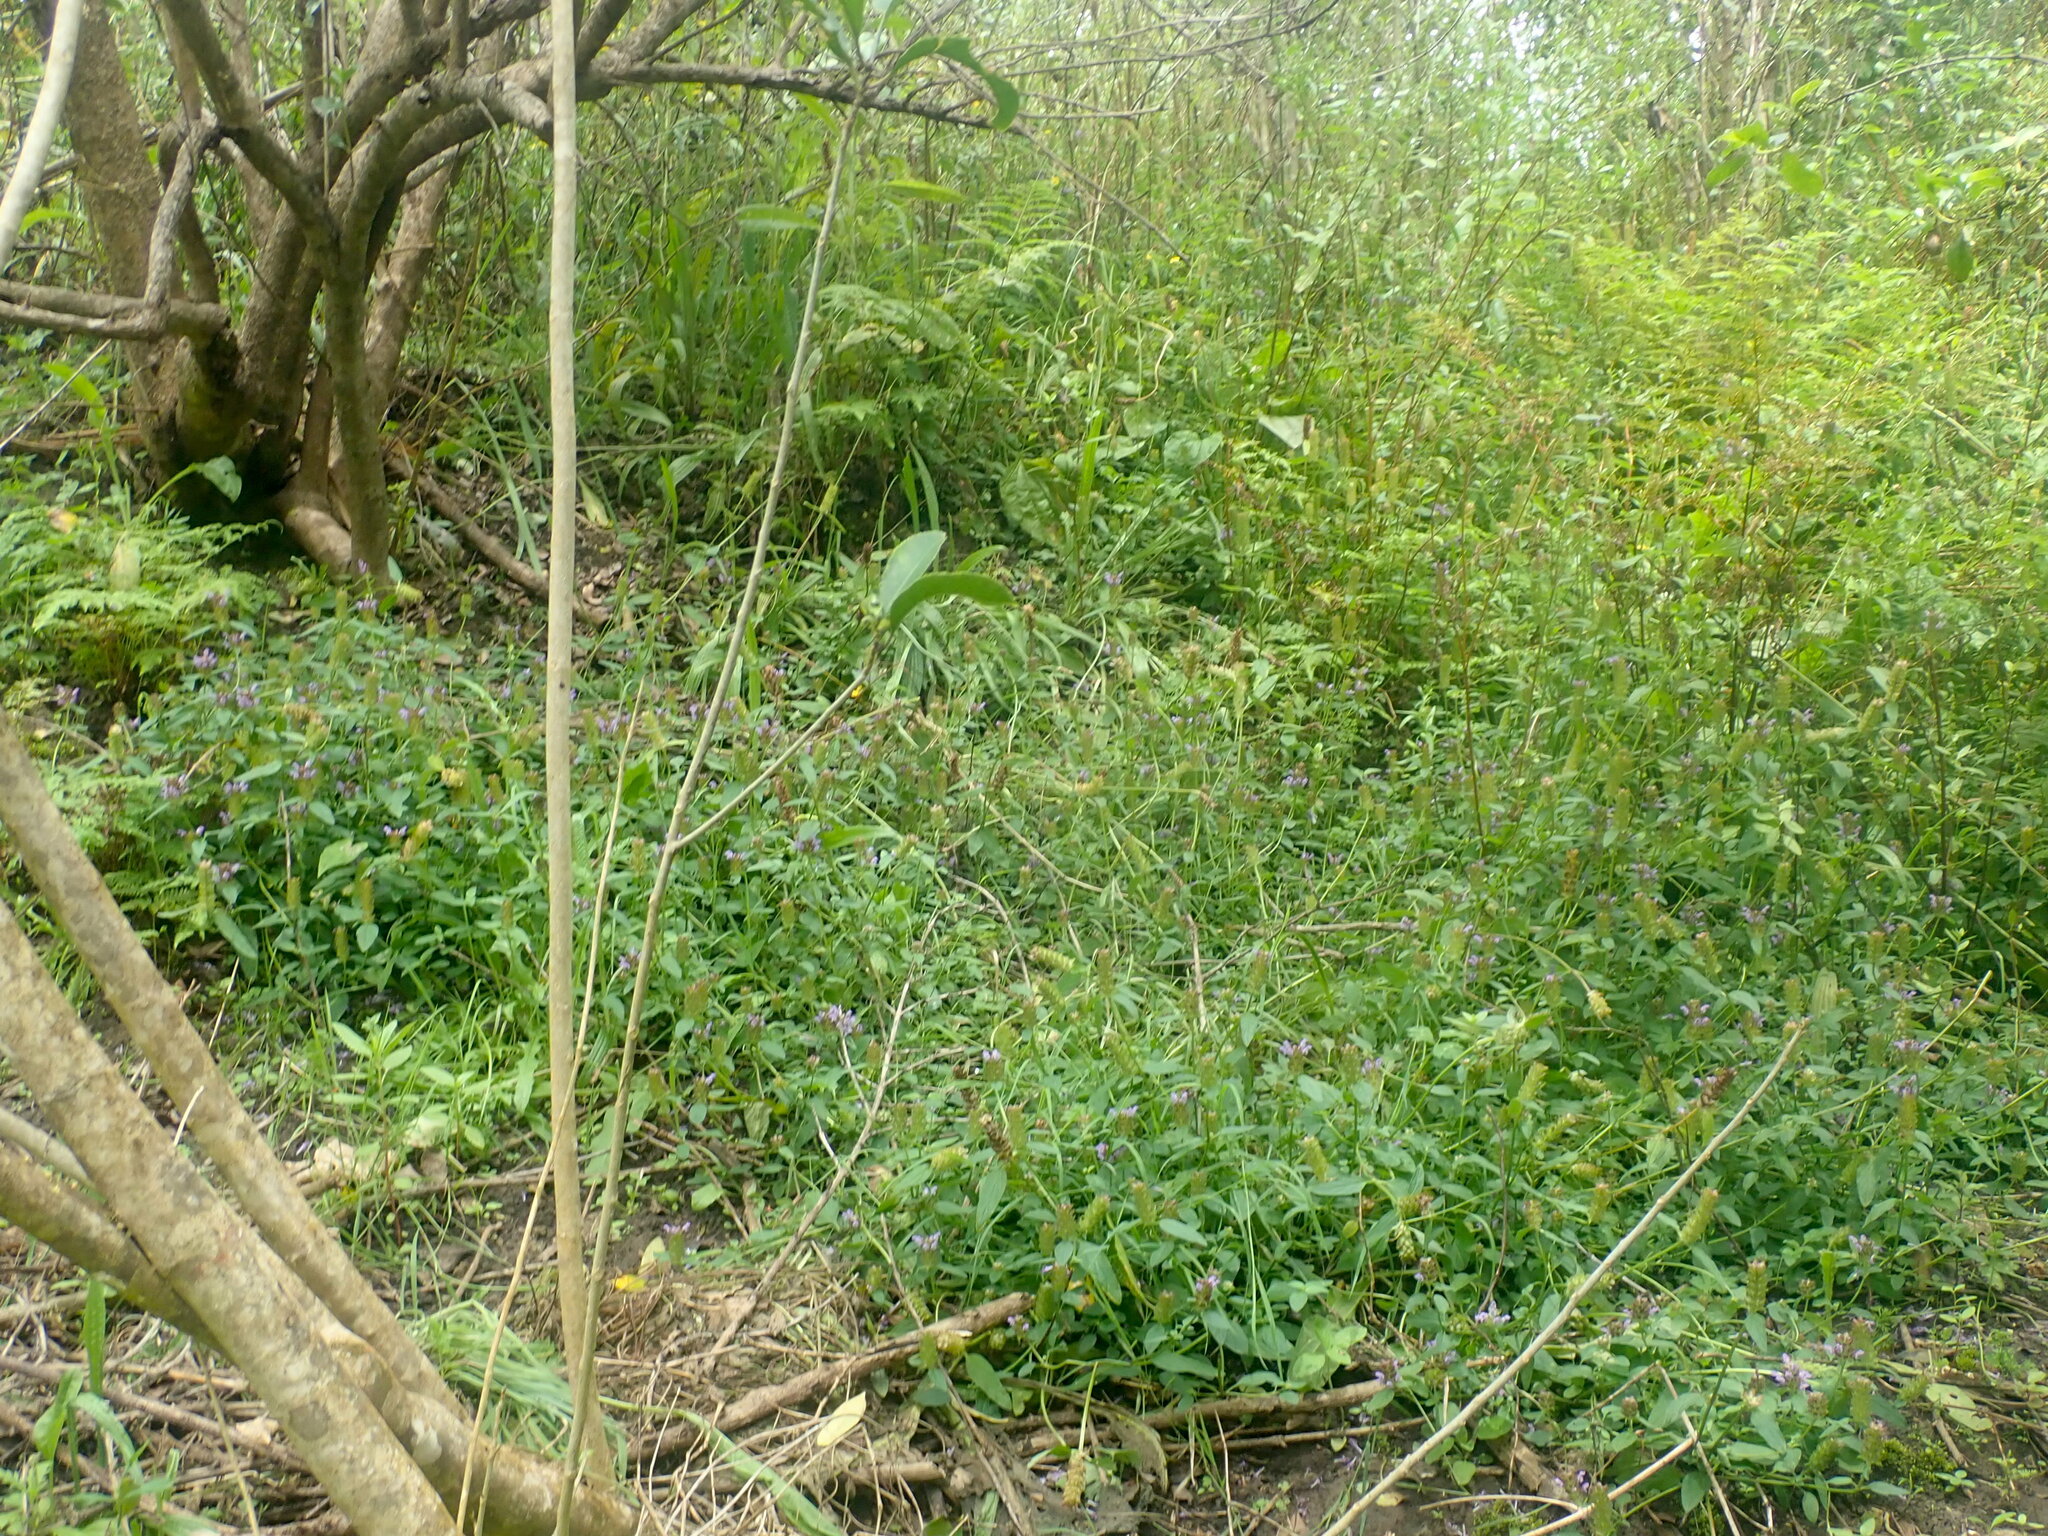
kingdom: Plantae
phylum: Tracheophyta
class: Magnoliopsida
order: Lamiales
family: Lamiaceae
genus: Prunella
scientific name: Prunella vulgaris
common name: Heal-all
